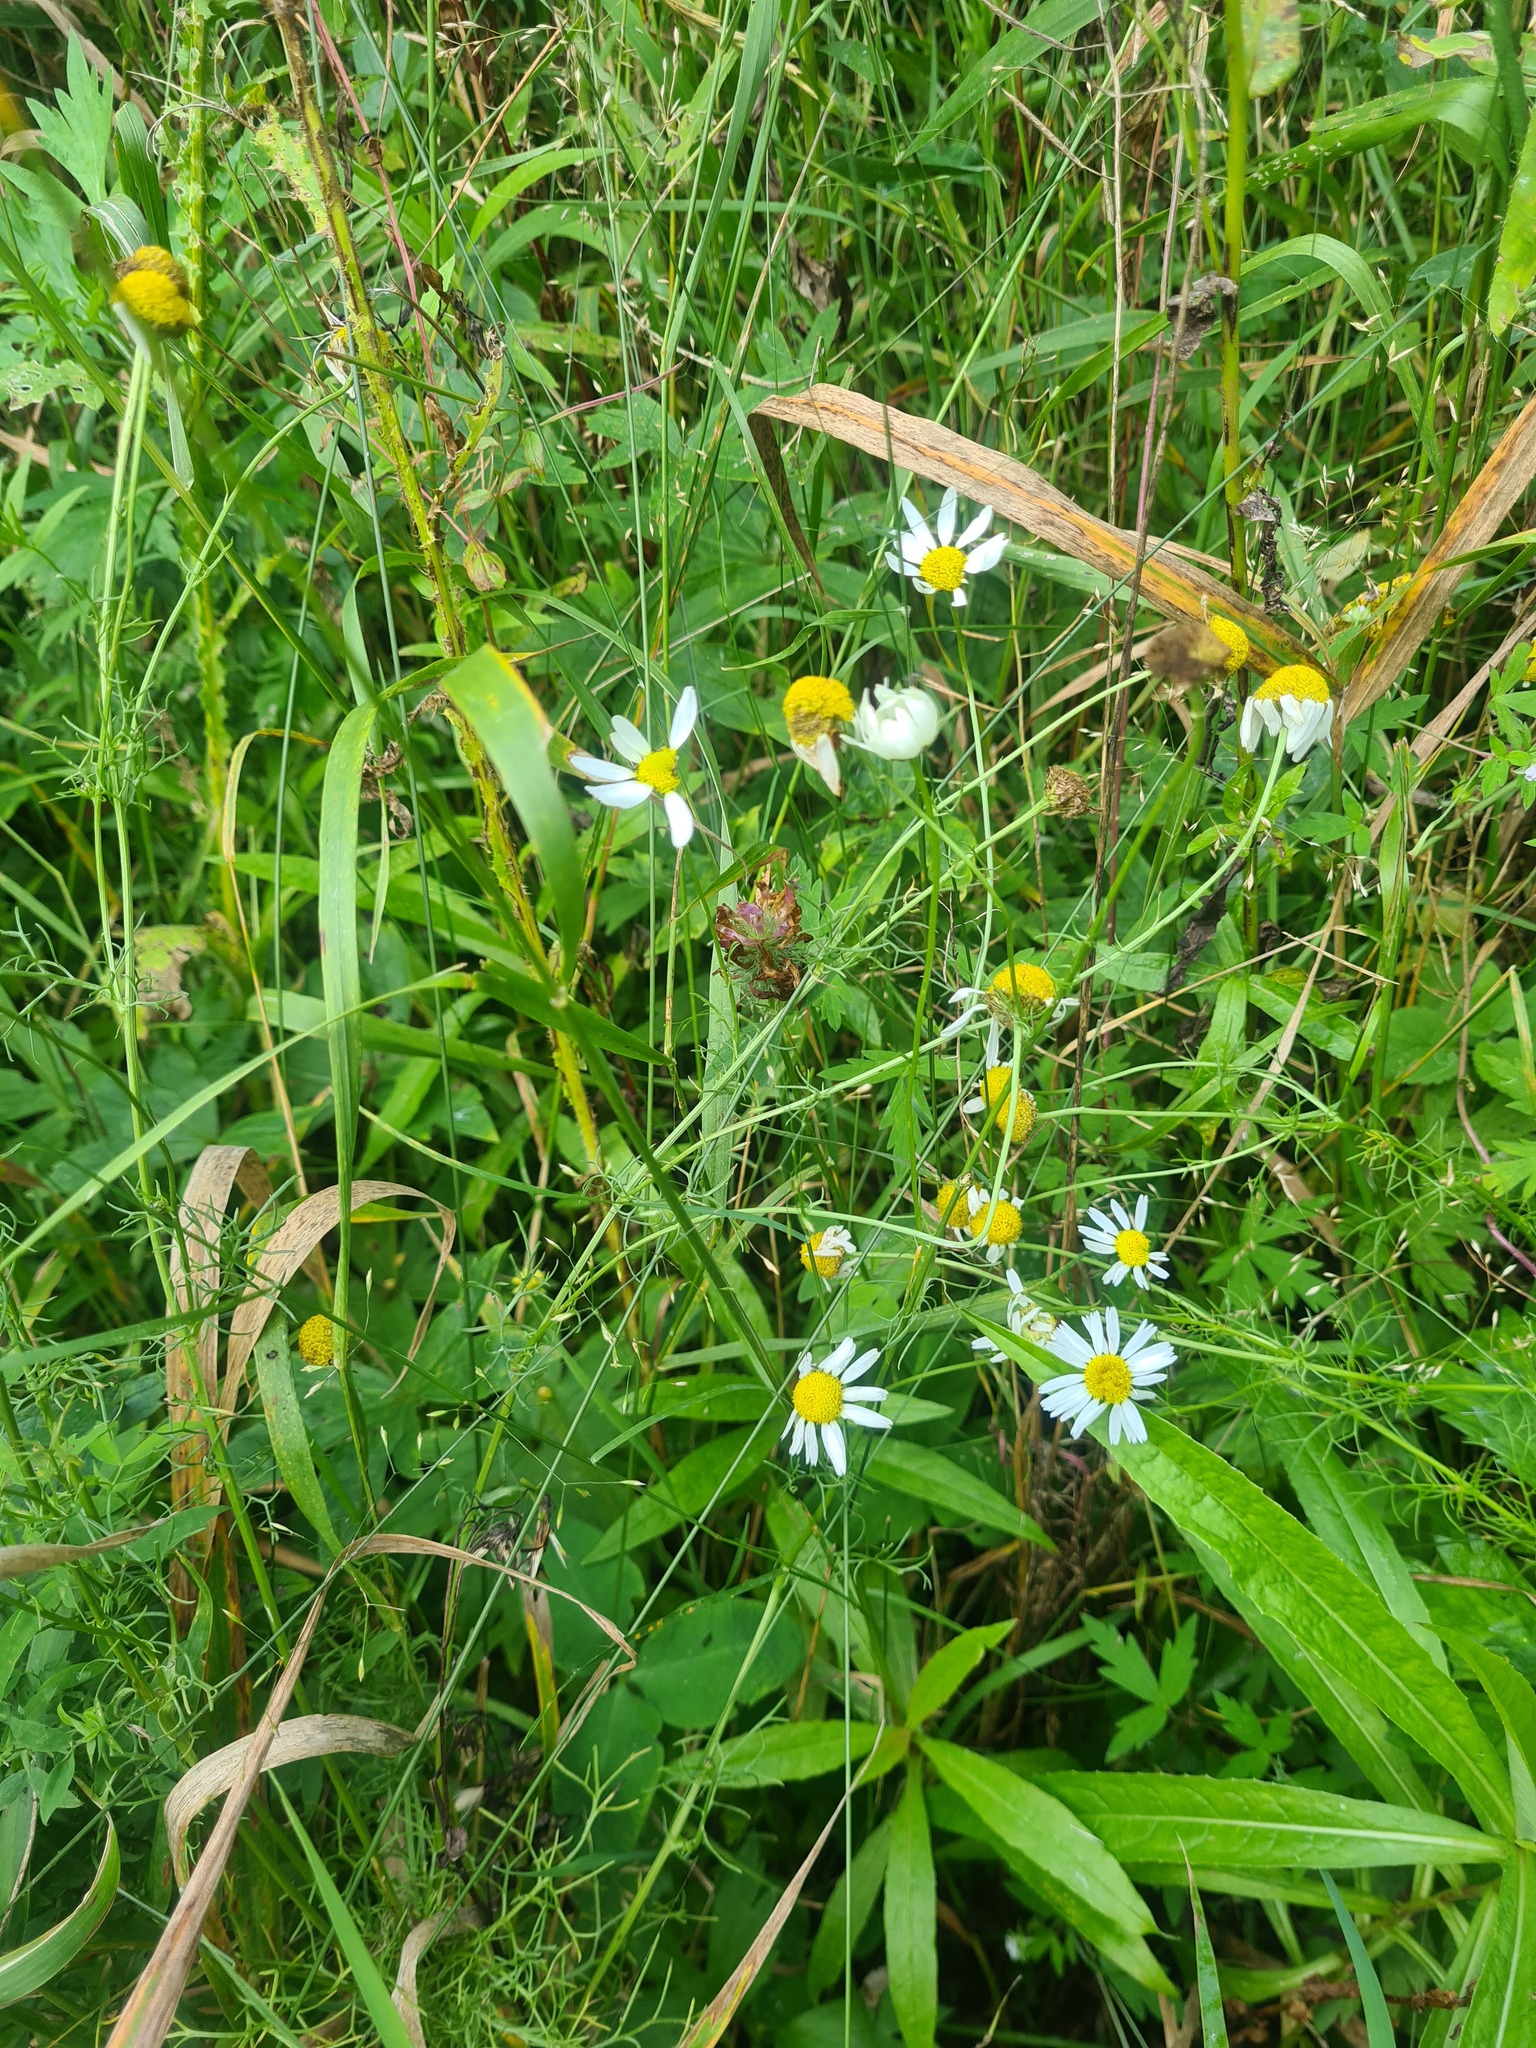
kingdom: Plantae
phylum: Tracheophyta
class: Magnoliopsida
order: Asterales
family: Asteraceae
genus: Tripleurospermum
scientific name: Tripleurospermum inodorum
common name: Scentless mayweed
